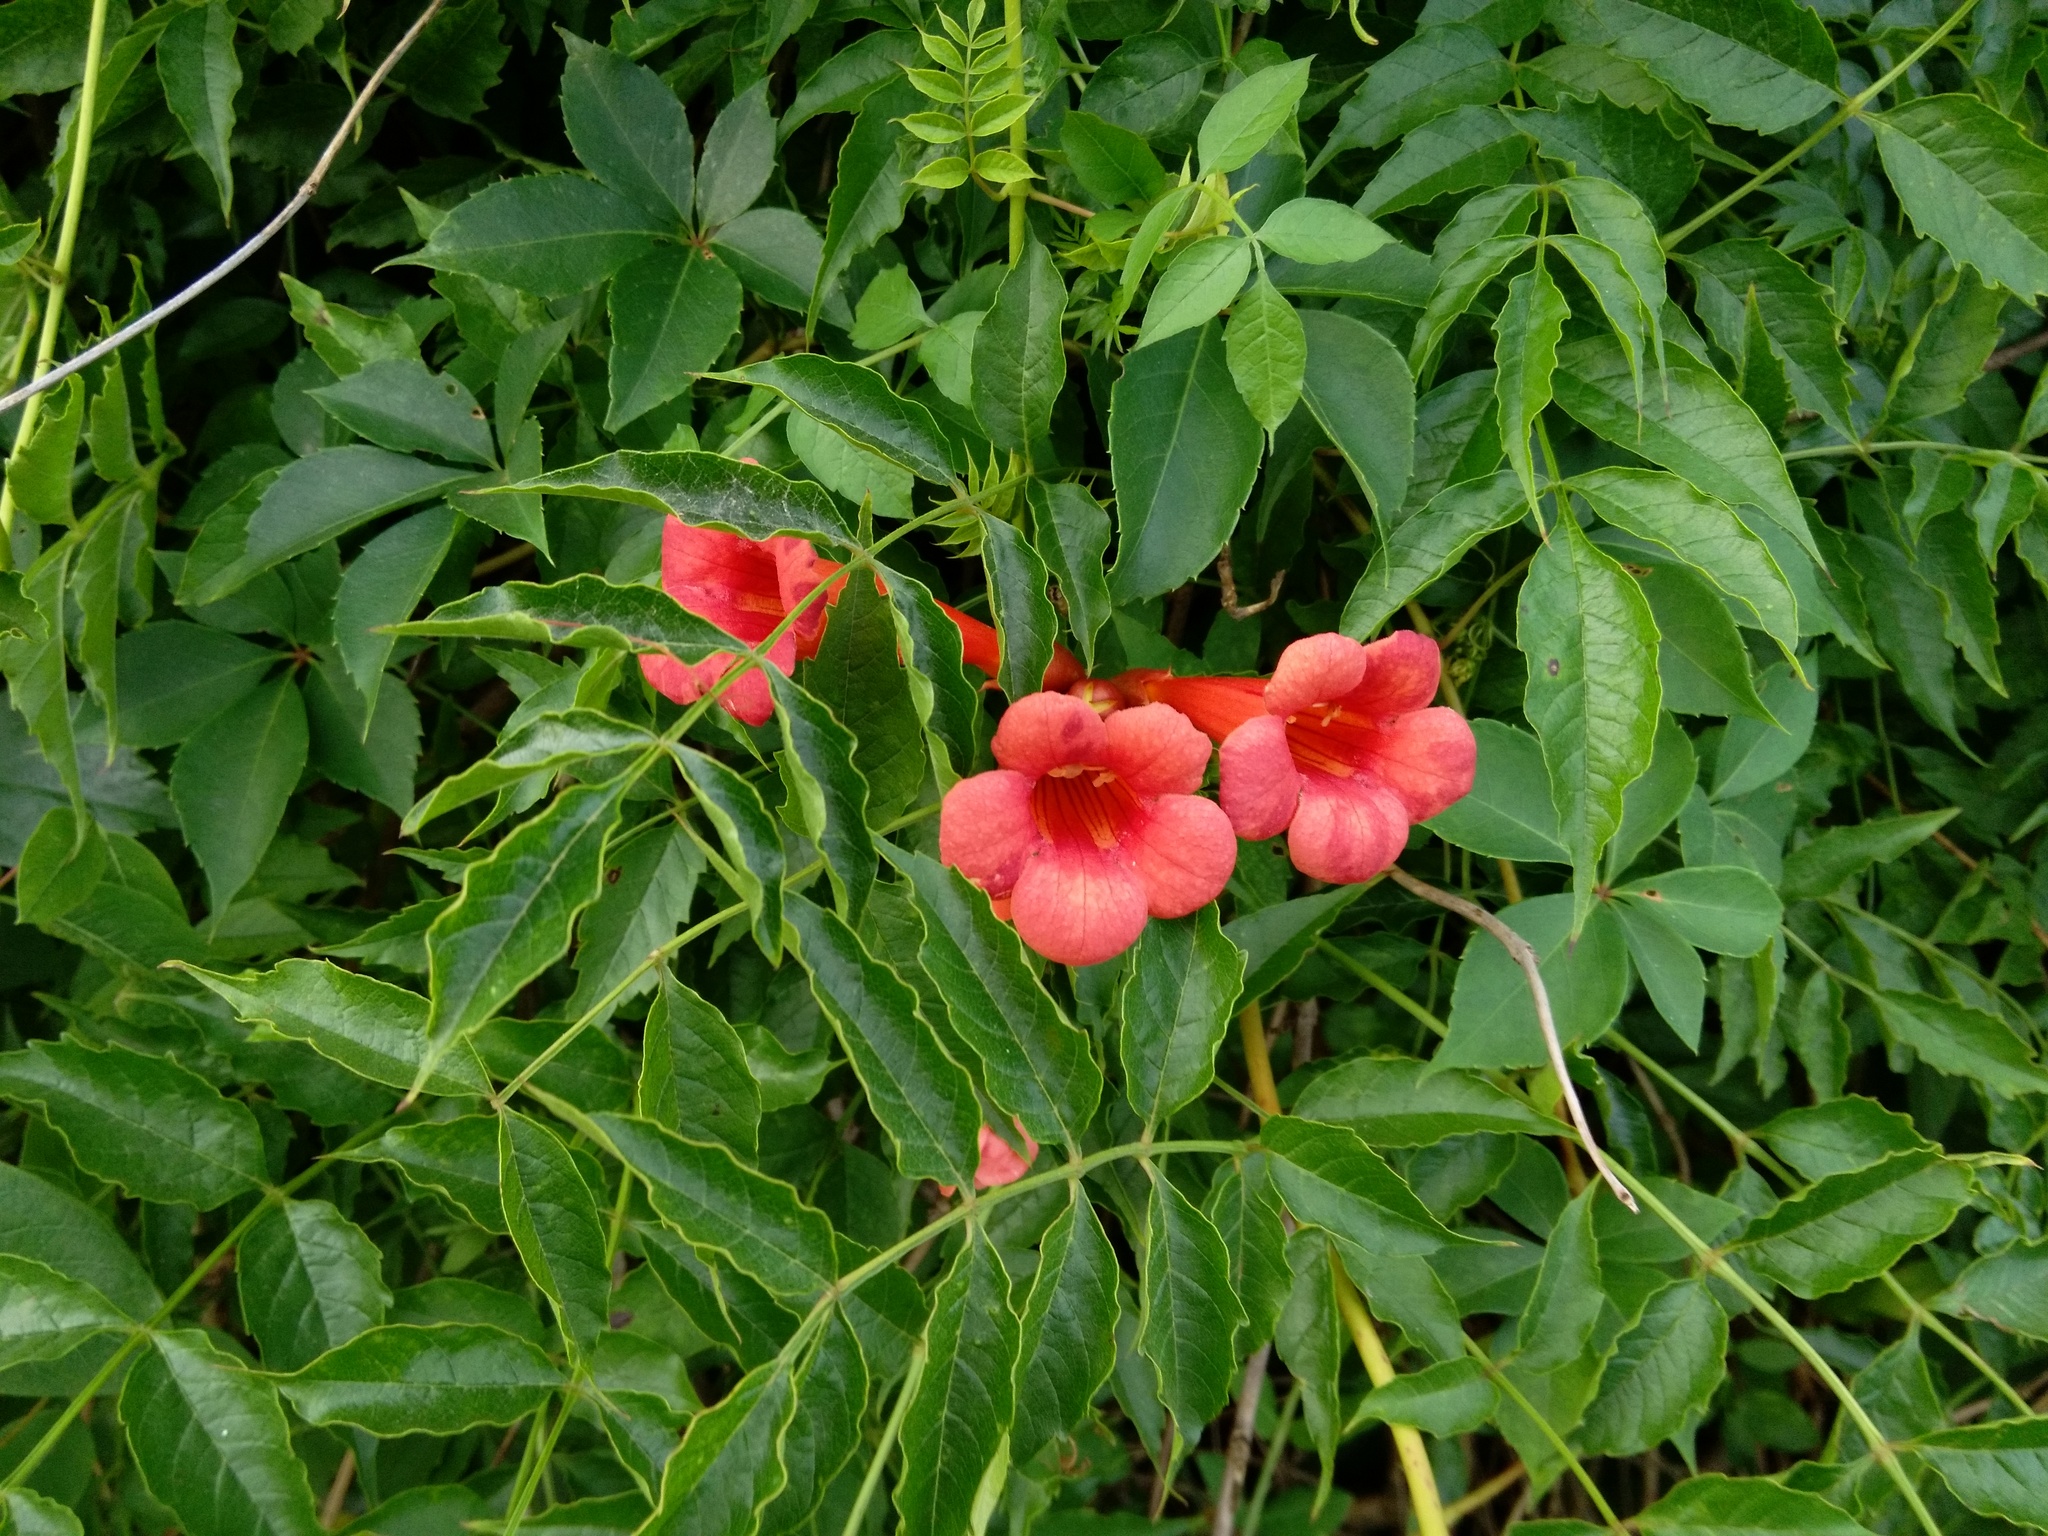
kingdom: Plantae
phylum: Tracheophyta
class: Magnoliopsida
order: Lamiales
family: Bignoniaceae
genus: Campsis
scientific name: Campsis radicans
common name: Trumpet-creeper
